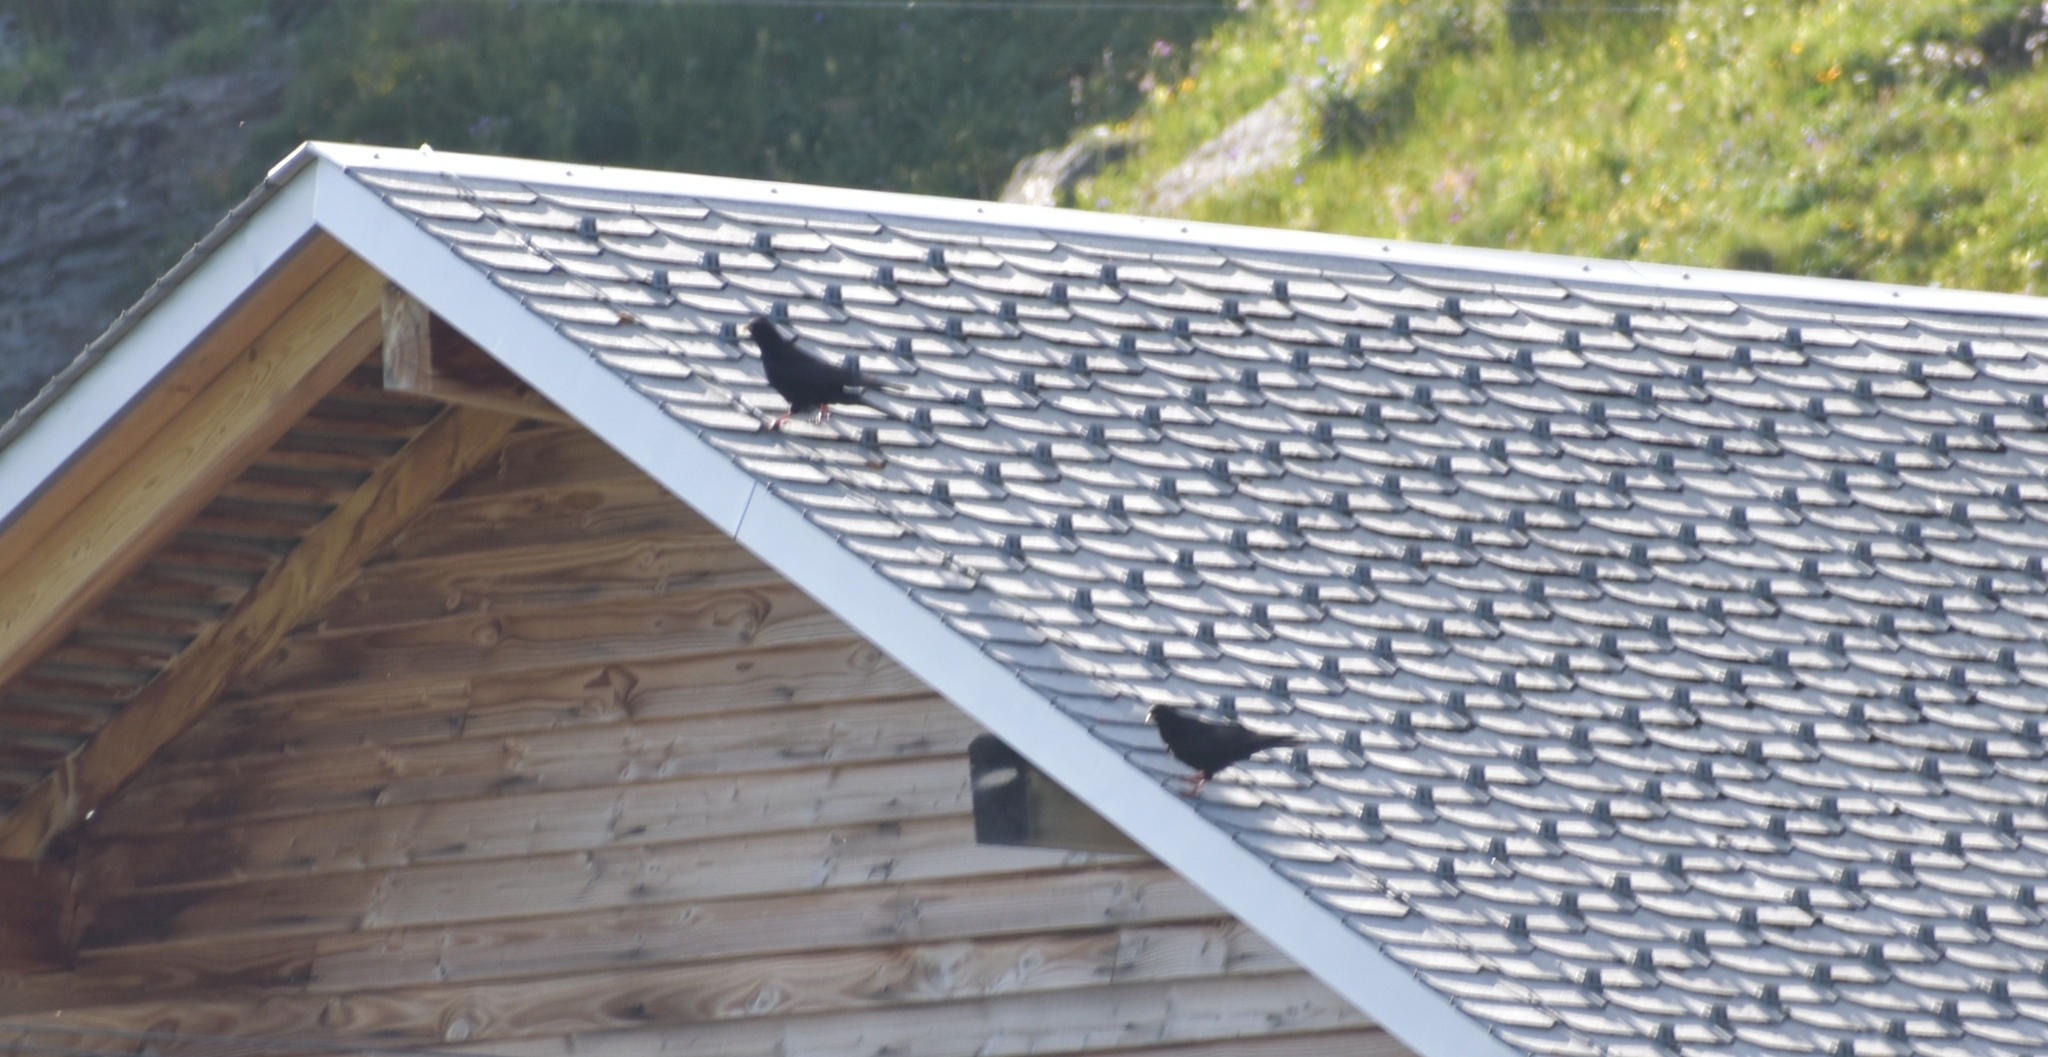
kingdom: Animalia
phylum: Chordata
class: Aves
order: Passeriformes
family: Corvidae
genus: Pyrrhocorax
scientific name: Pyrrhocorax graculus
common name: Alpine chough
